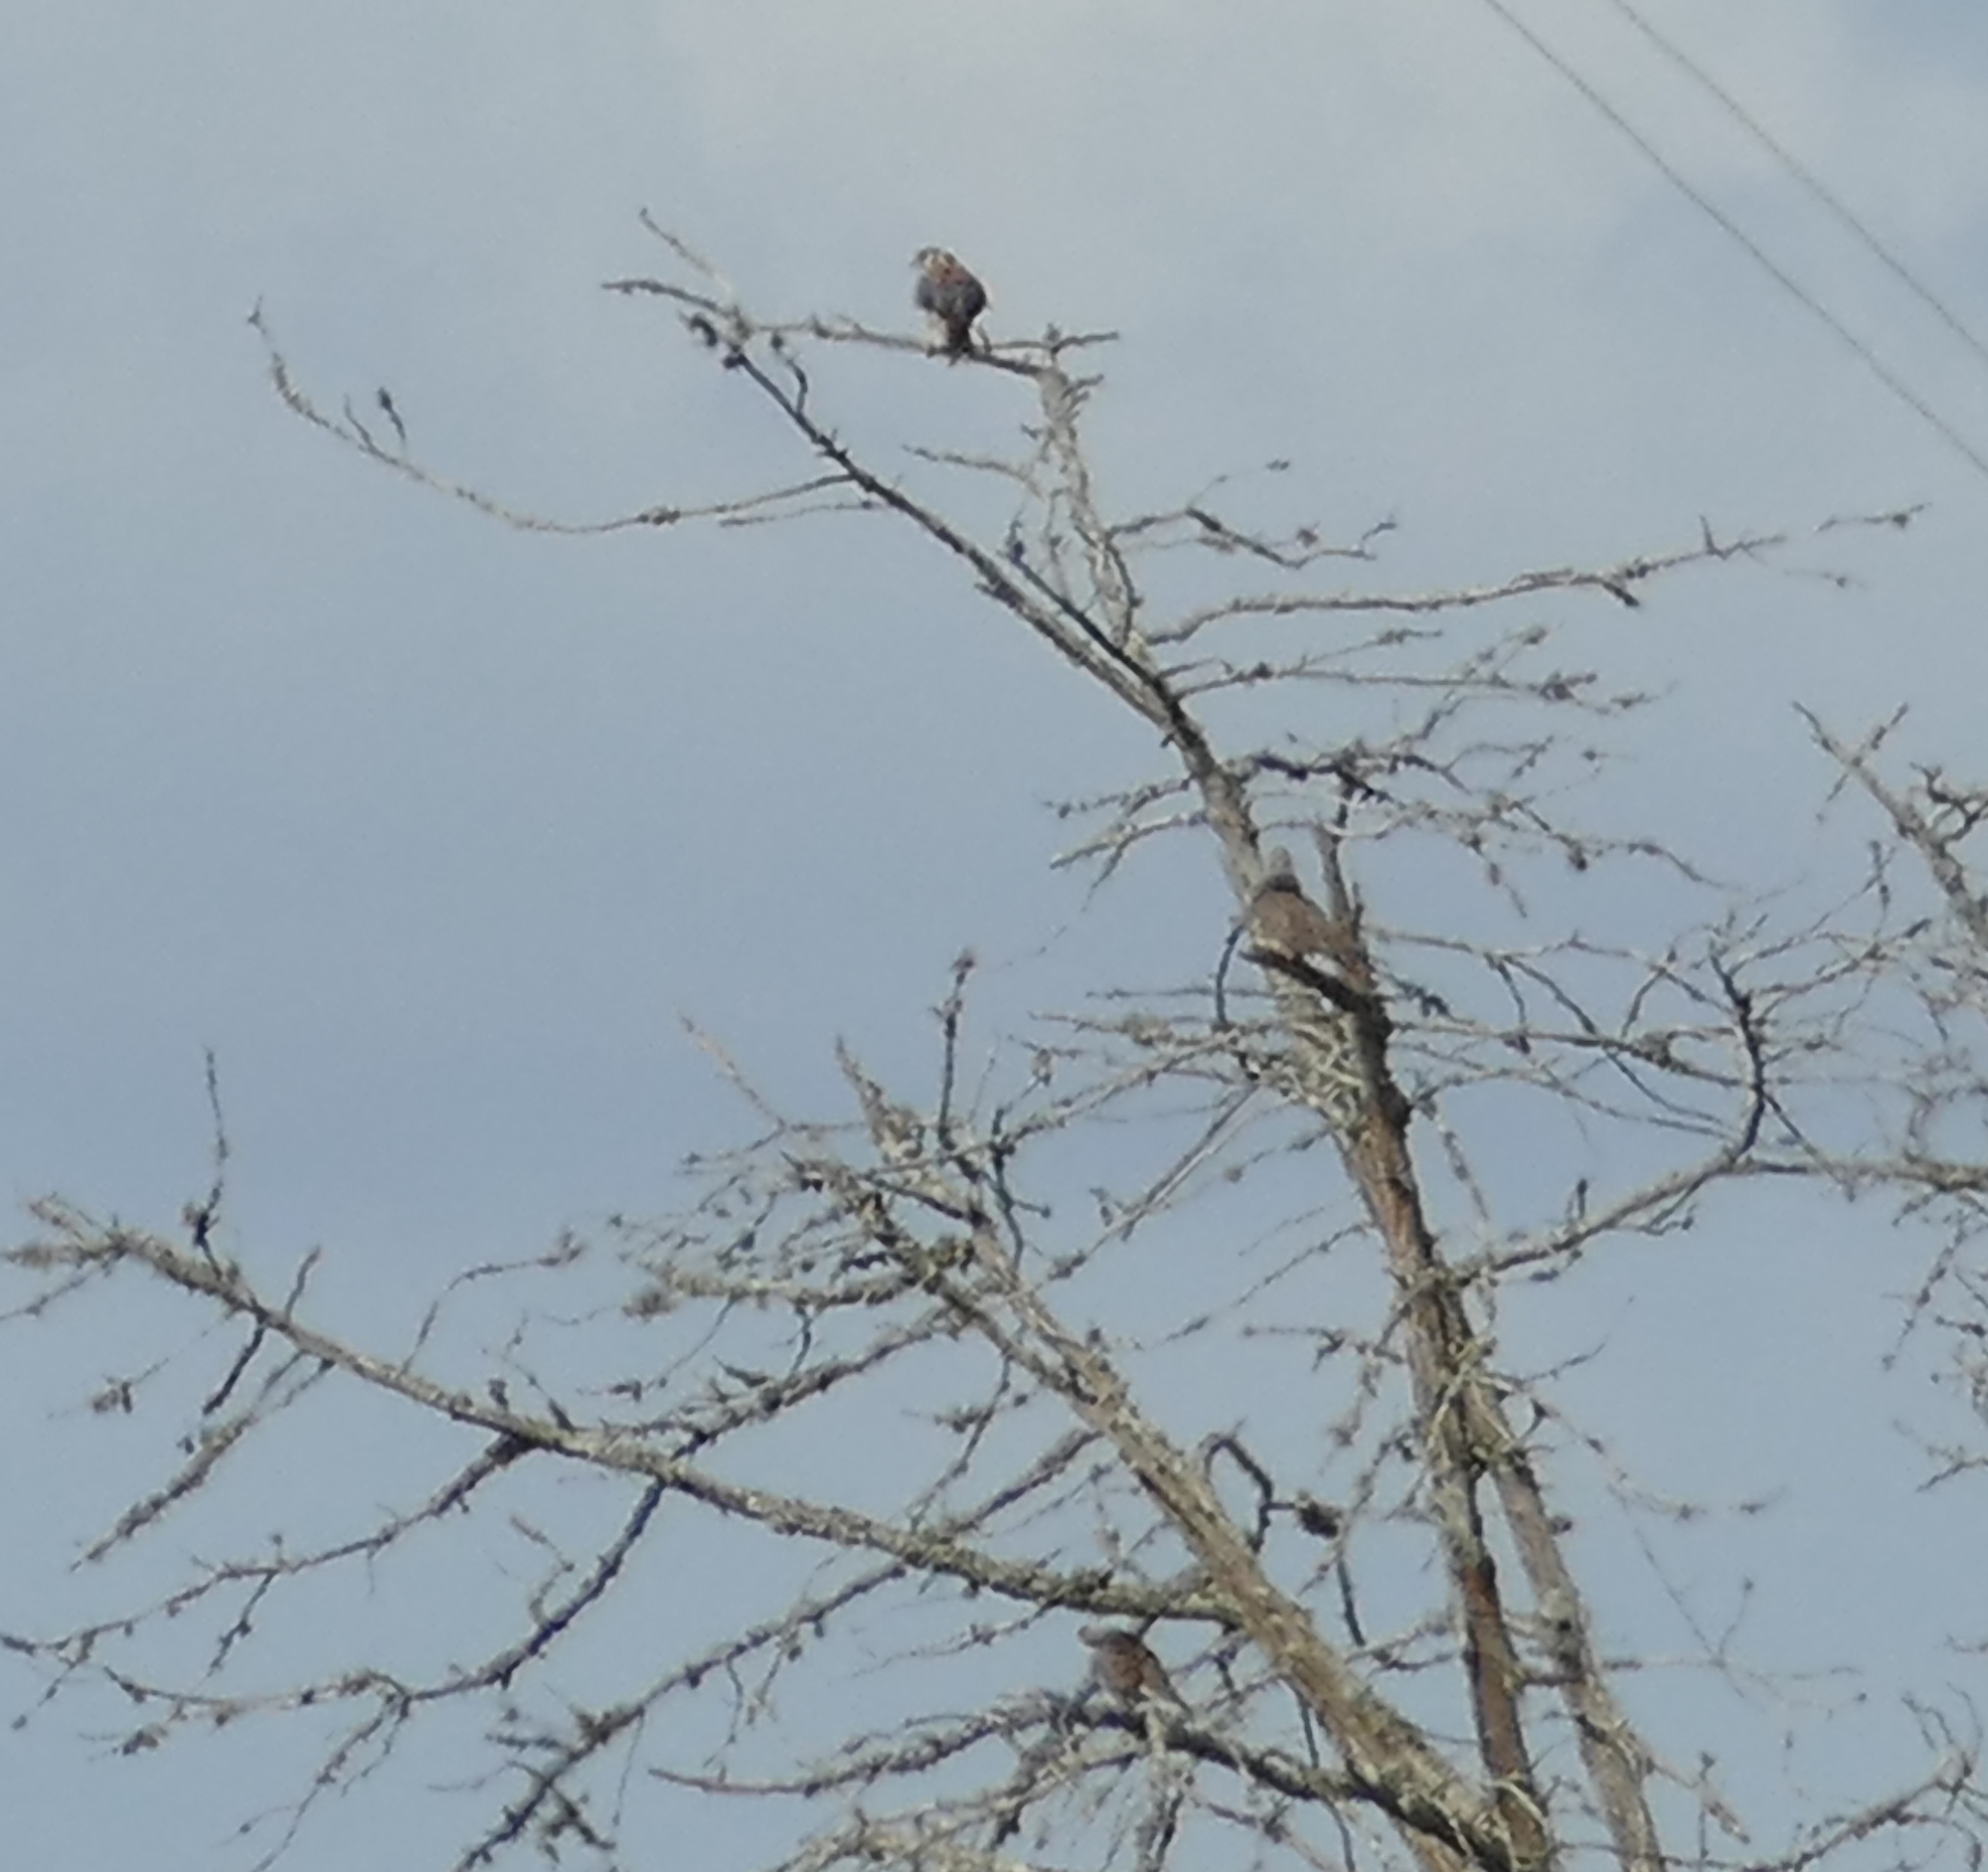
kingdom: Animalia
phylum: Chordata
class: Aves
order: Falconiformes
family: Falconidae
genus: Falco
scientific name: Falco sparverius
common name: American kestrel
